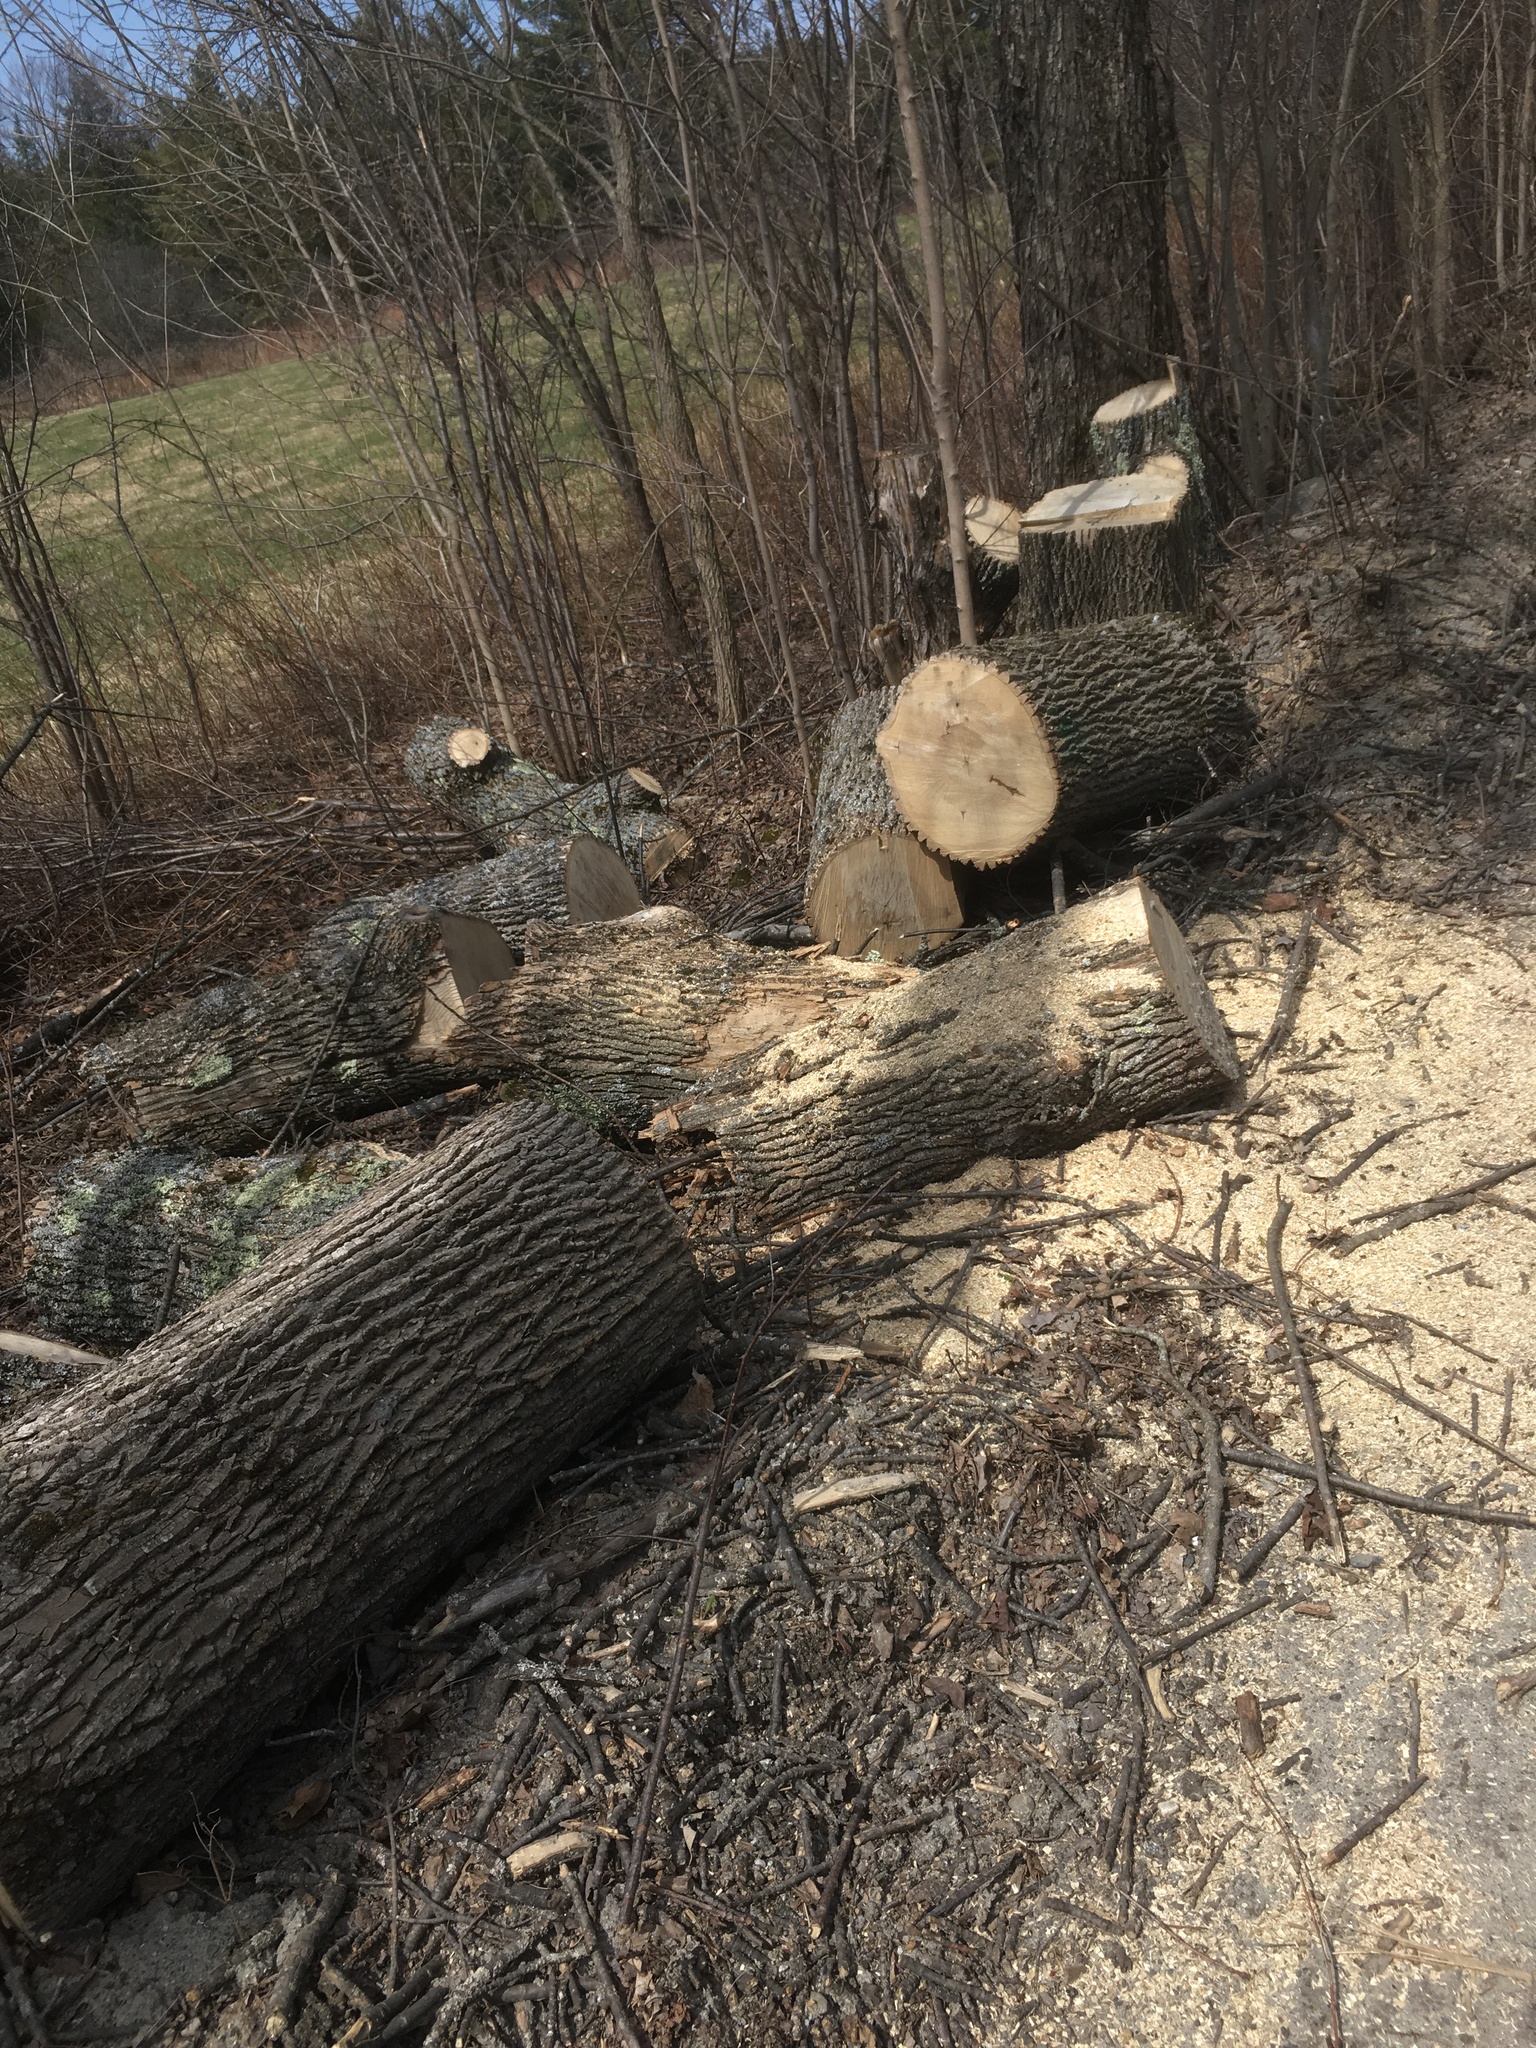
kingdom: Plantae
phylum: Tracheophyta
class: Magnoliopsida
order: Lamiales
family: Oleaceae
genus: Fraxinus
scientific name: Fraxinus americana
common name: White ash
